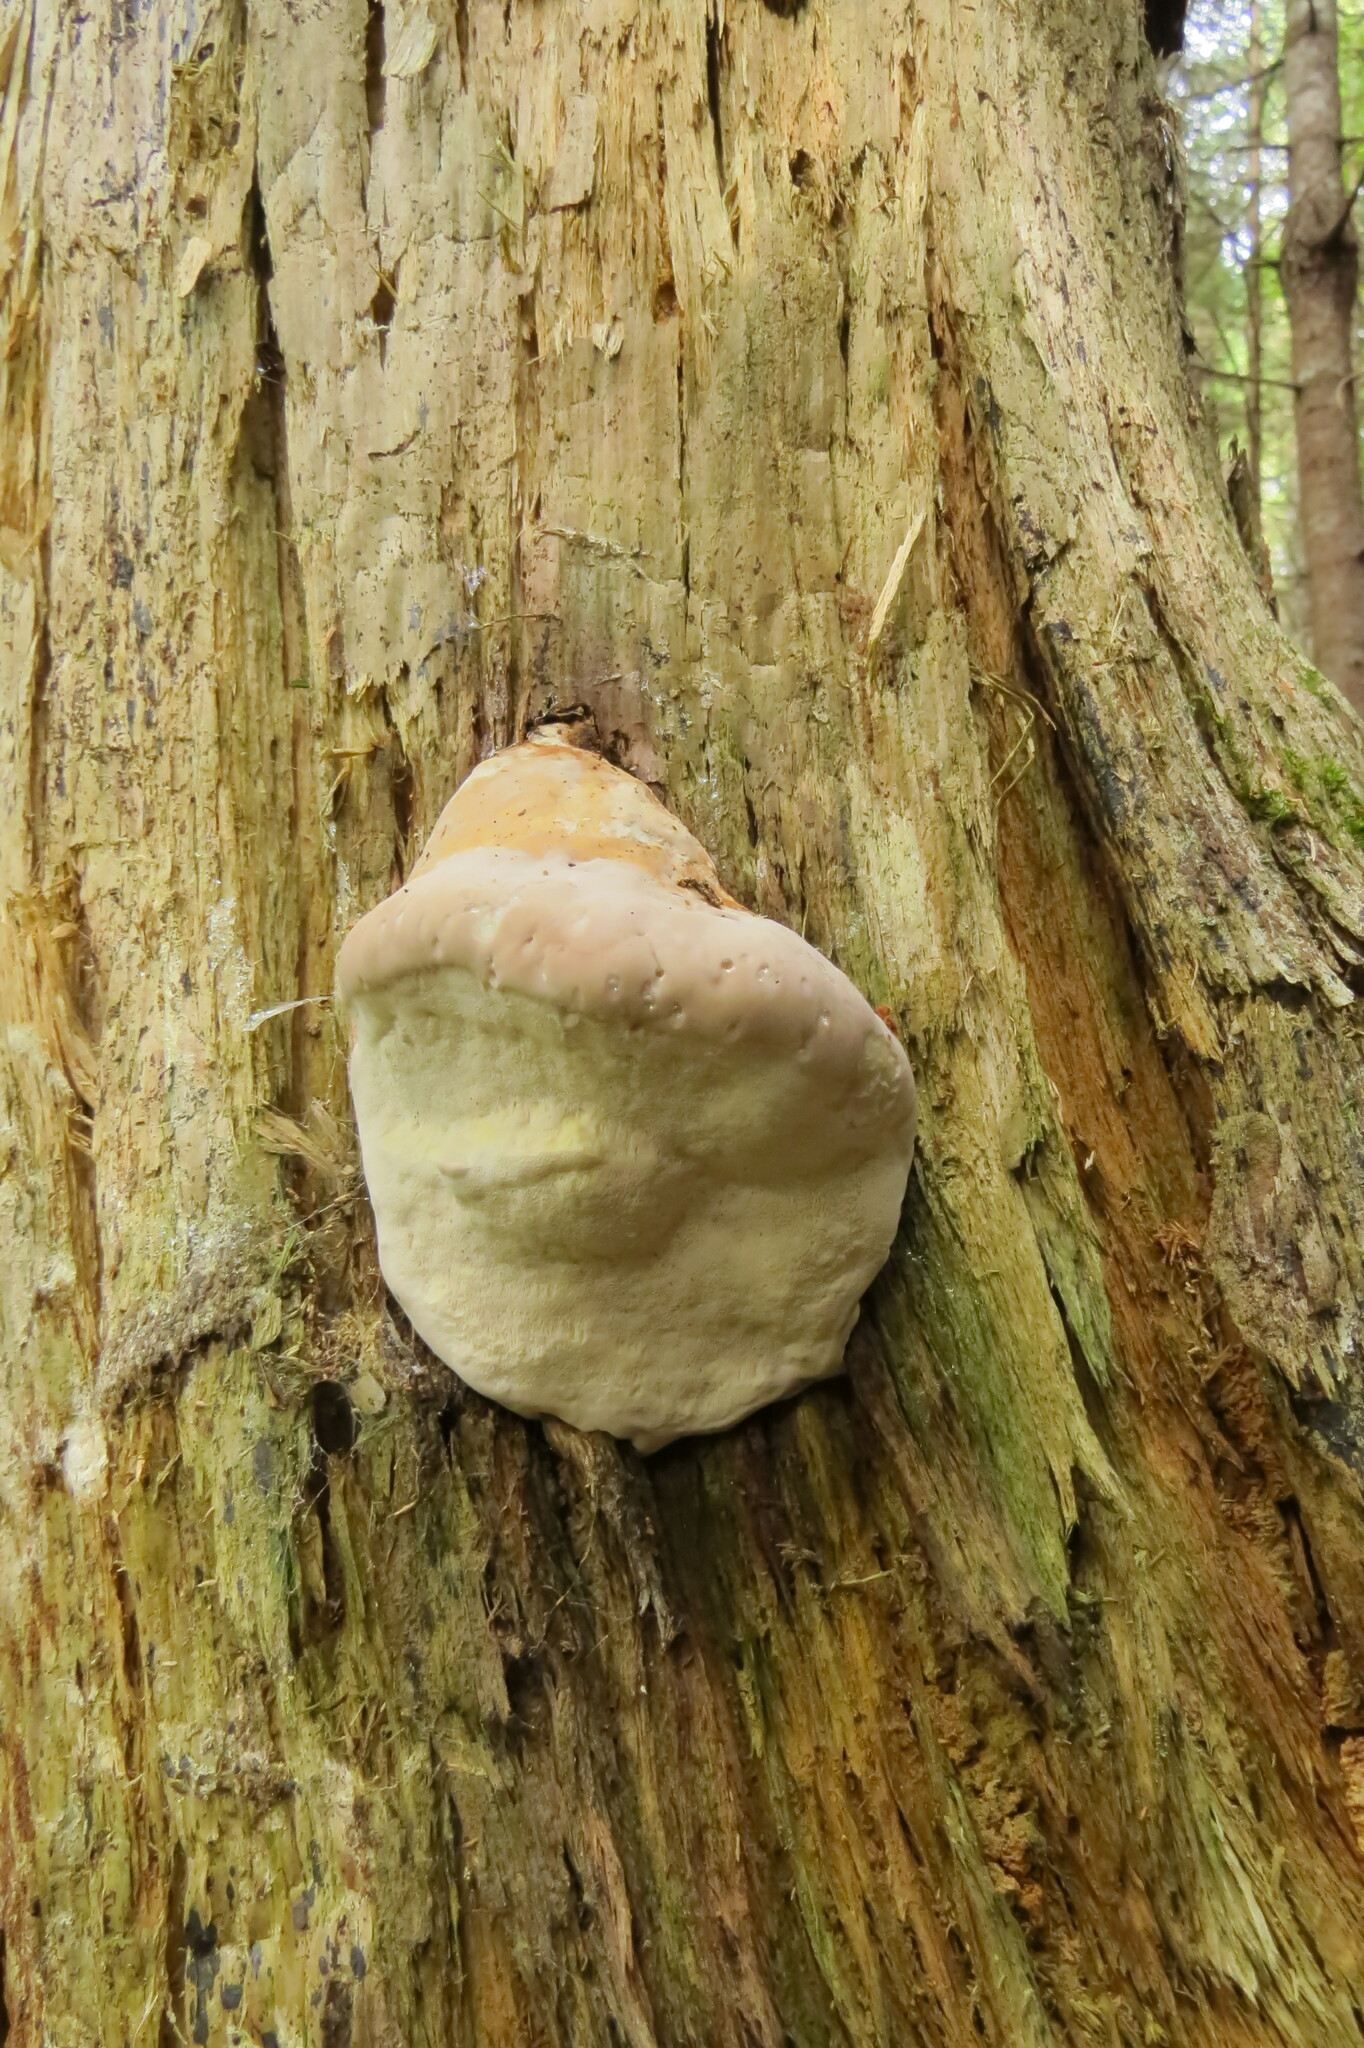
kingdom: Fungi
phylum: Basidiomycota
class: Agaricomycetes
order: Polyporales
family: Fomitopsidaceae
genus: Fomitopsis
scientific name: Fomitopsis mounceae
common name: Northern red belt
